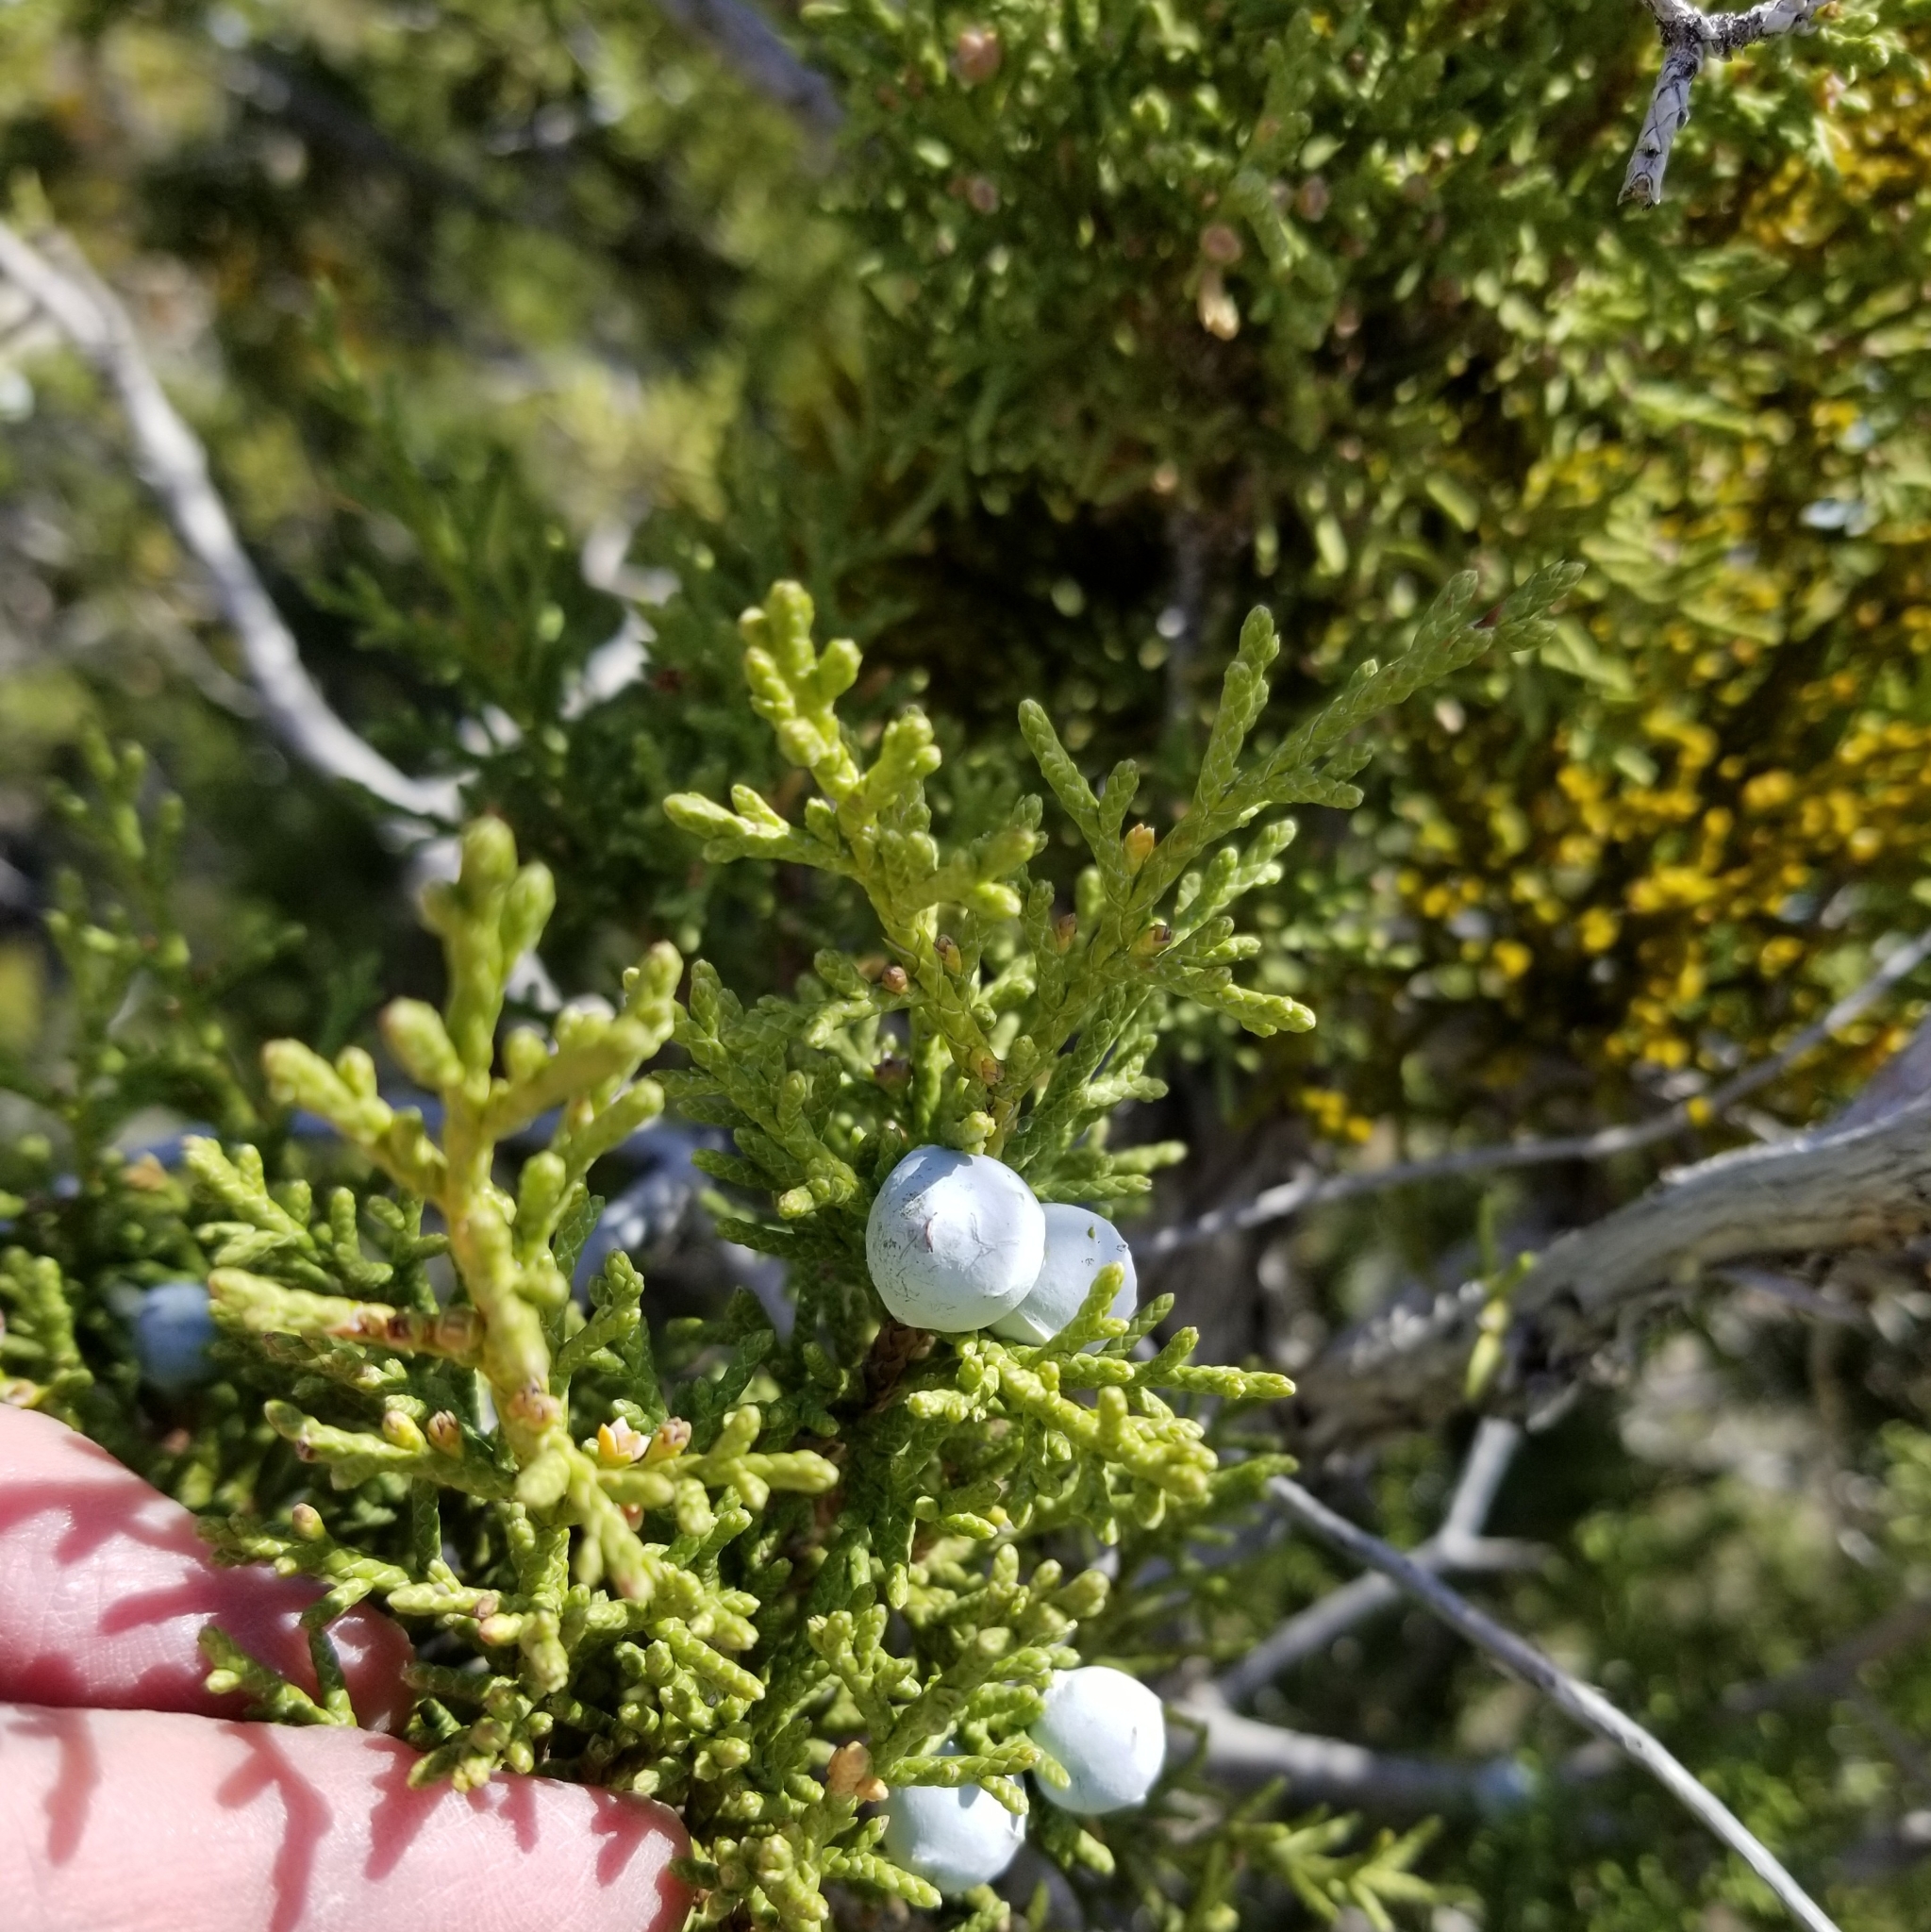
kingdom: Plantae
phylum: Tracheophyta
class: Pinopsida
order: Pinales
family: Cupressaceae
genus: Juniperus
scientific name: Juniperus osteosperma
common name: Utah juniper
